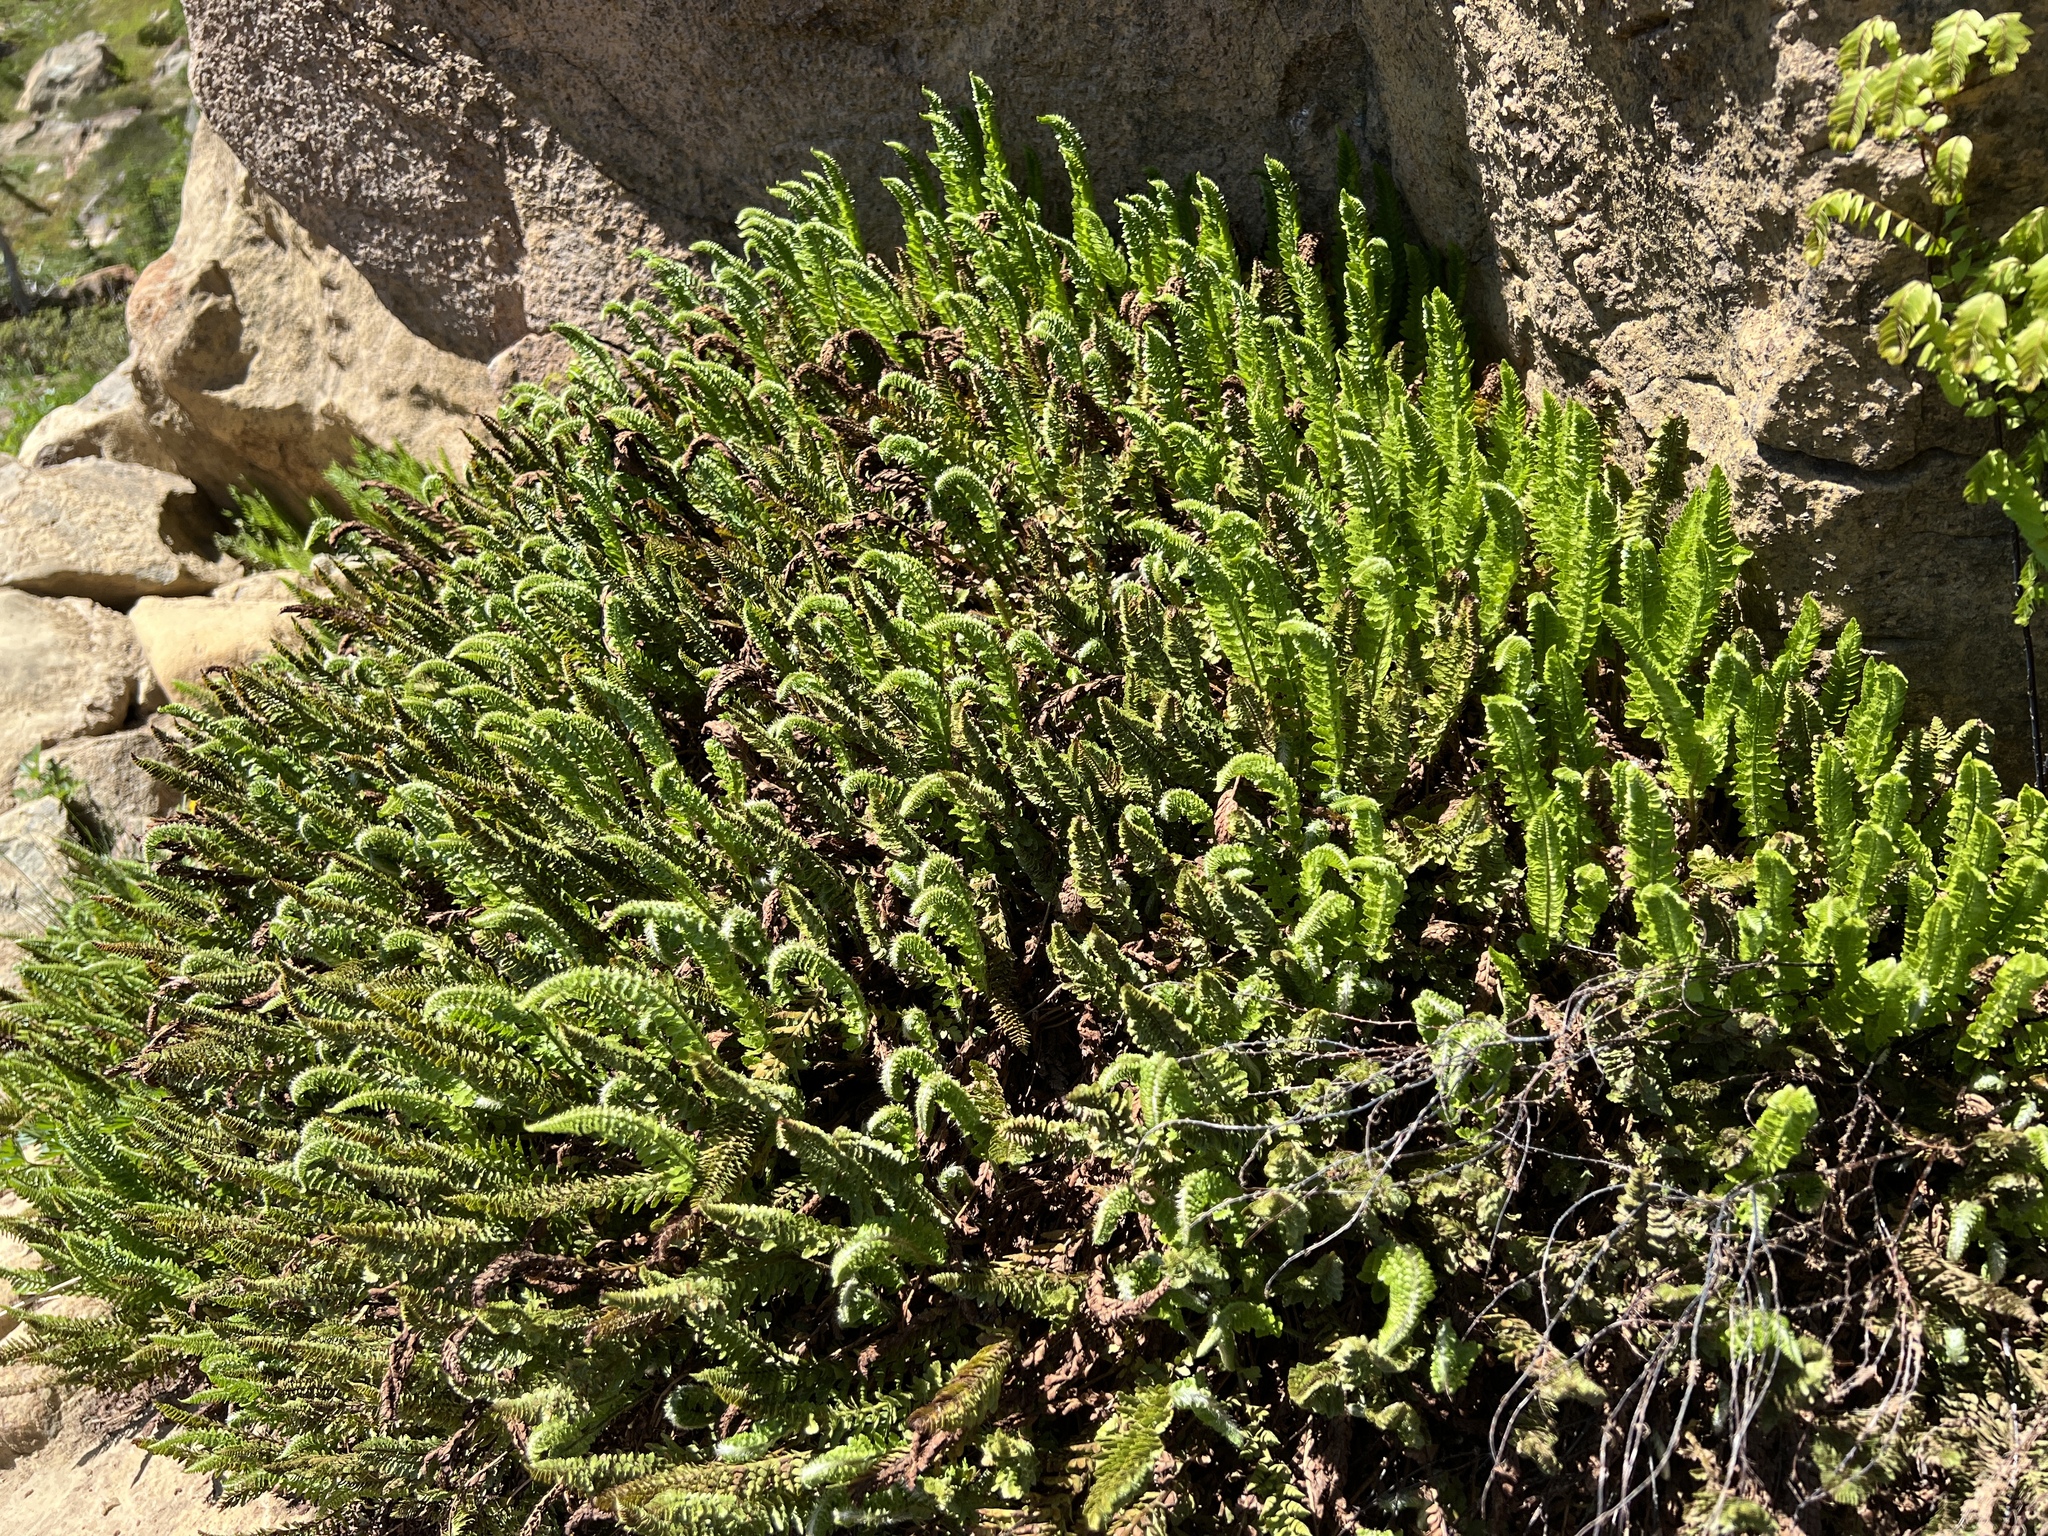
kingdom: Plantae
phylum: Tracheophyta
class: Polypodiopsida
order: Polypodiales
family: Dryopteridaceae
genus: Polystichum
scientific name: Polystichum lemmonii
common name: Lemmon's holly fern
